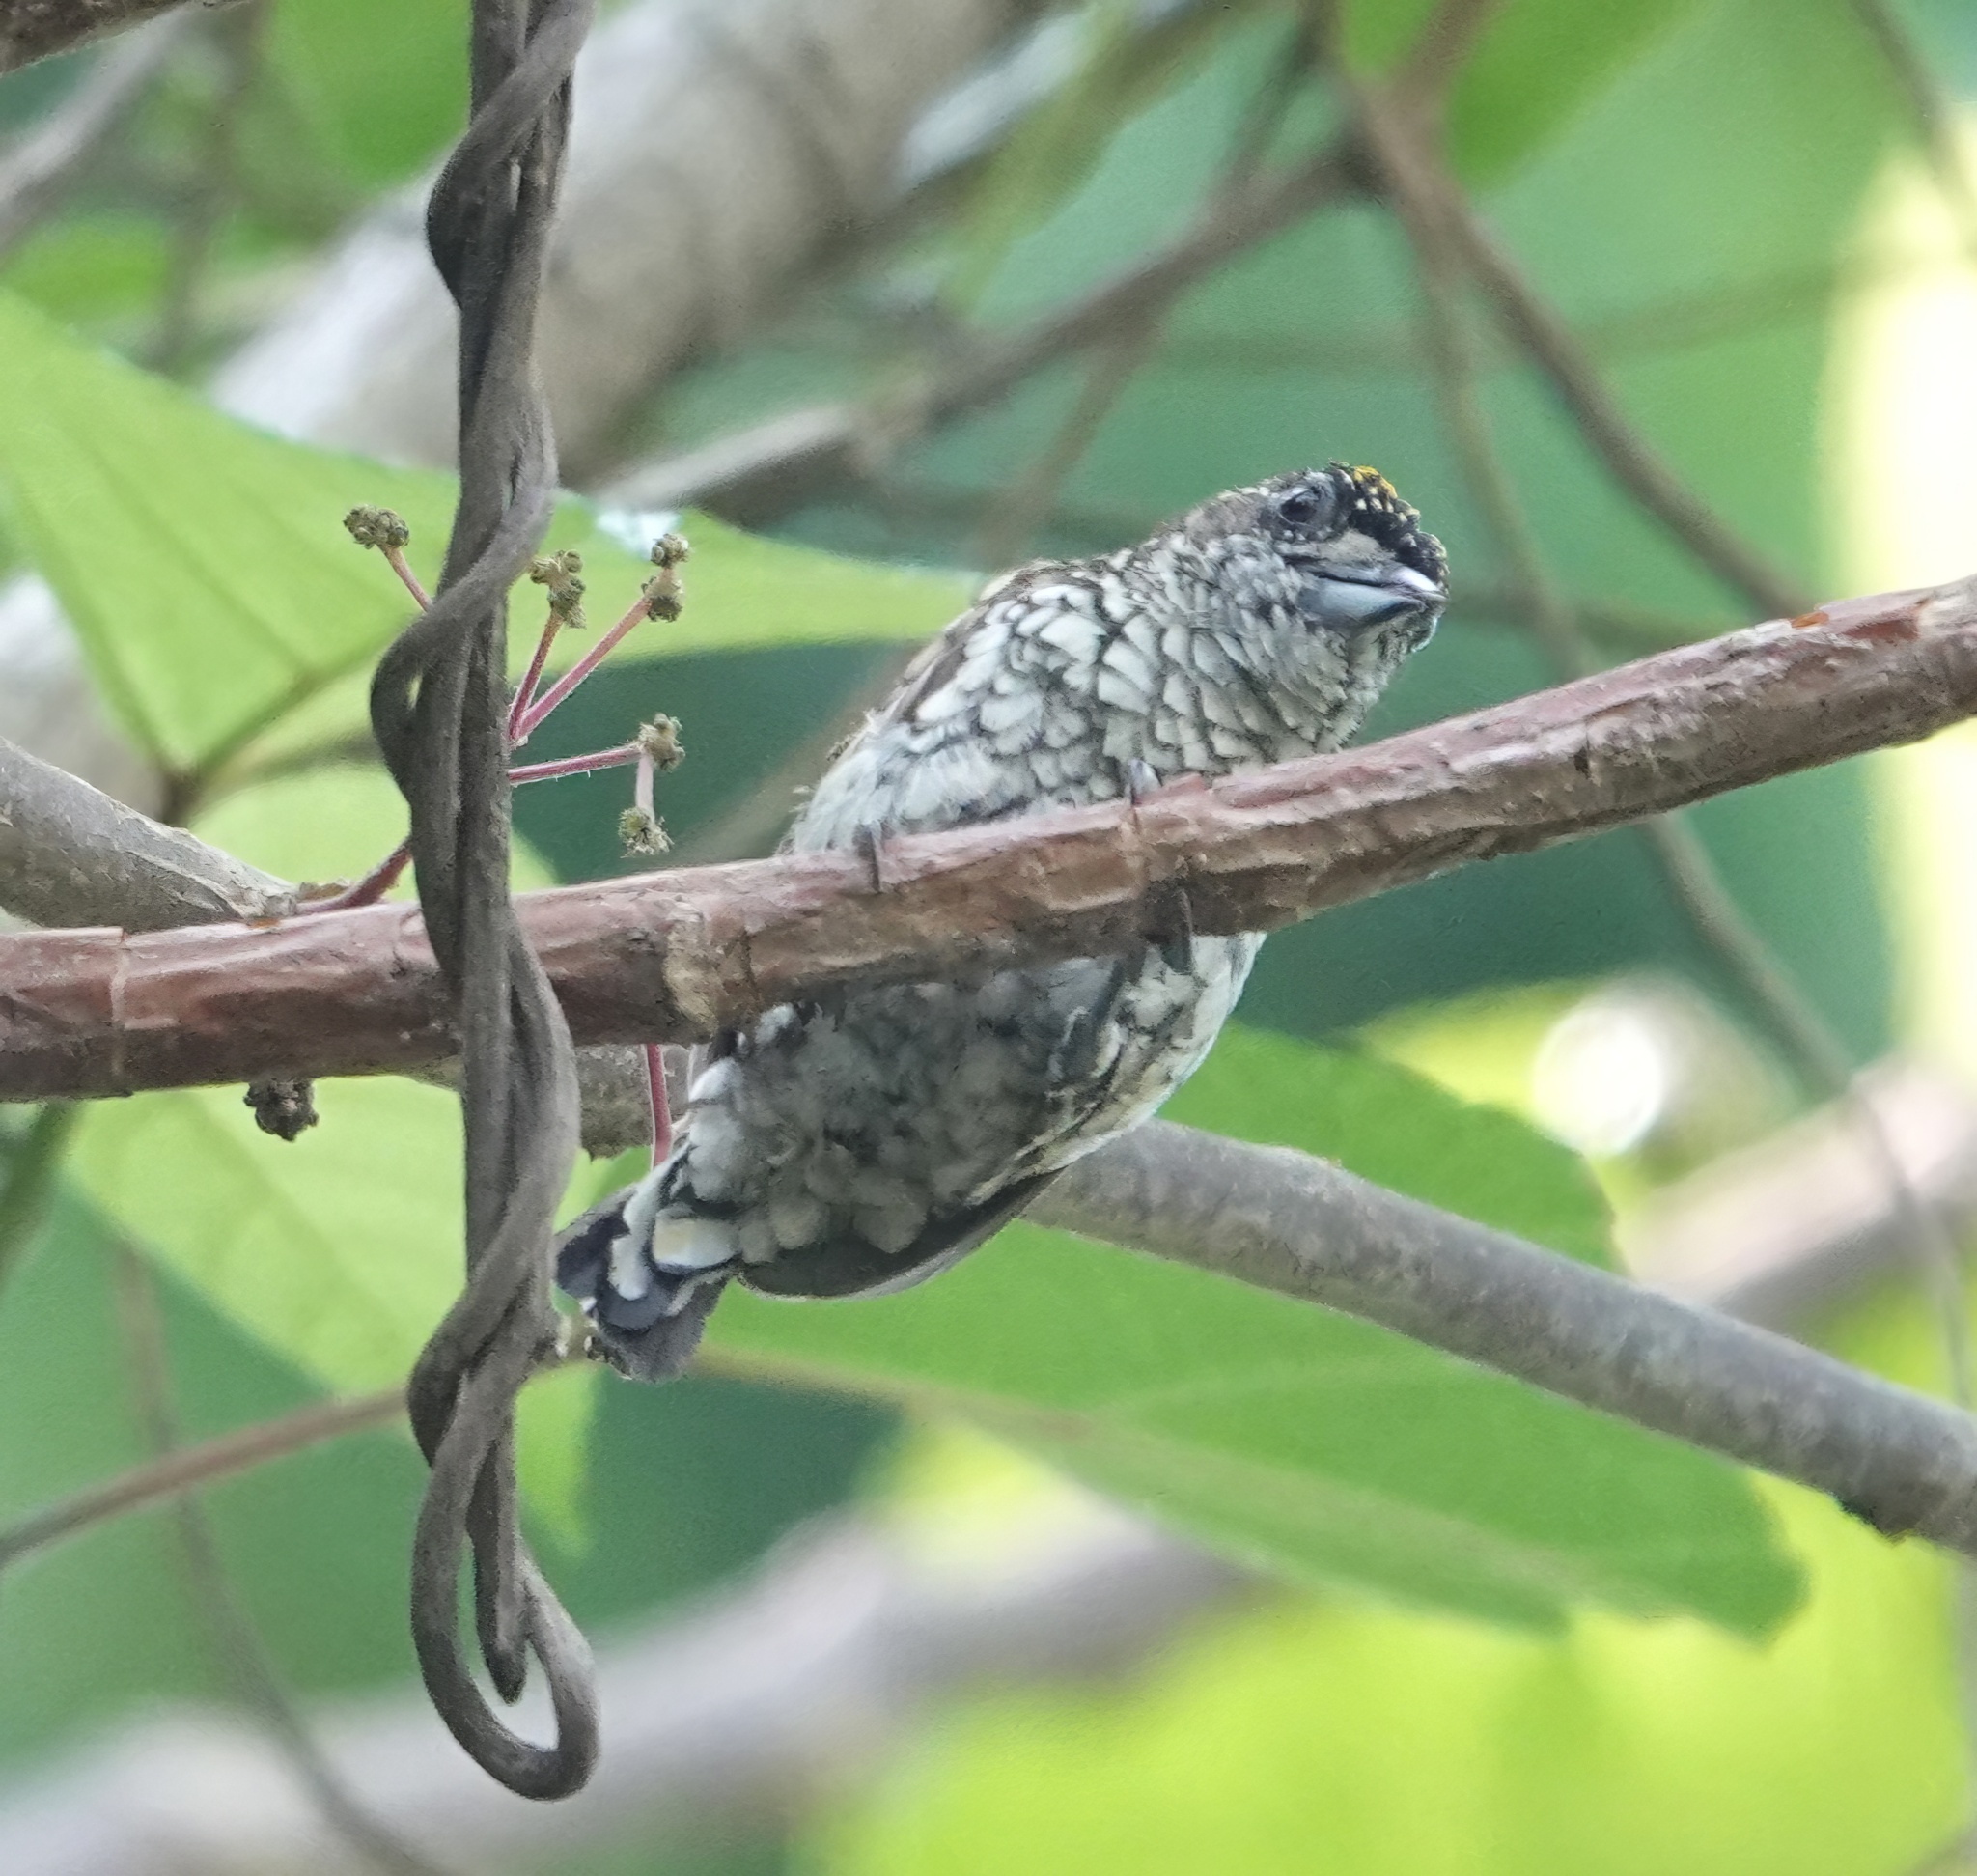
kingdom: Animalia
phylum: Chordata
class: Aves
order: Piciformes
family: Picidae
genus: Picumnus
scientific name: Picumnus squamulatus
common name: Scaled piculet
